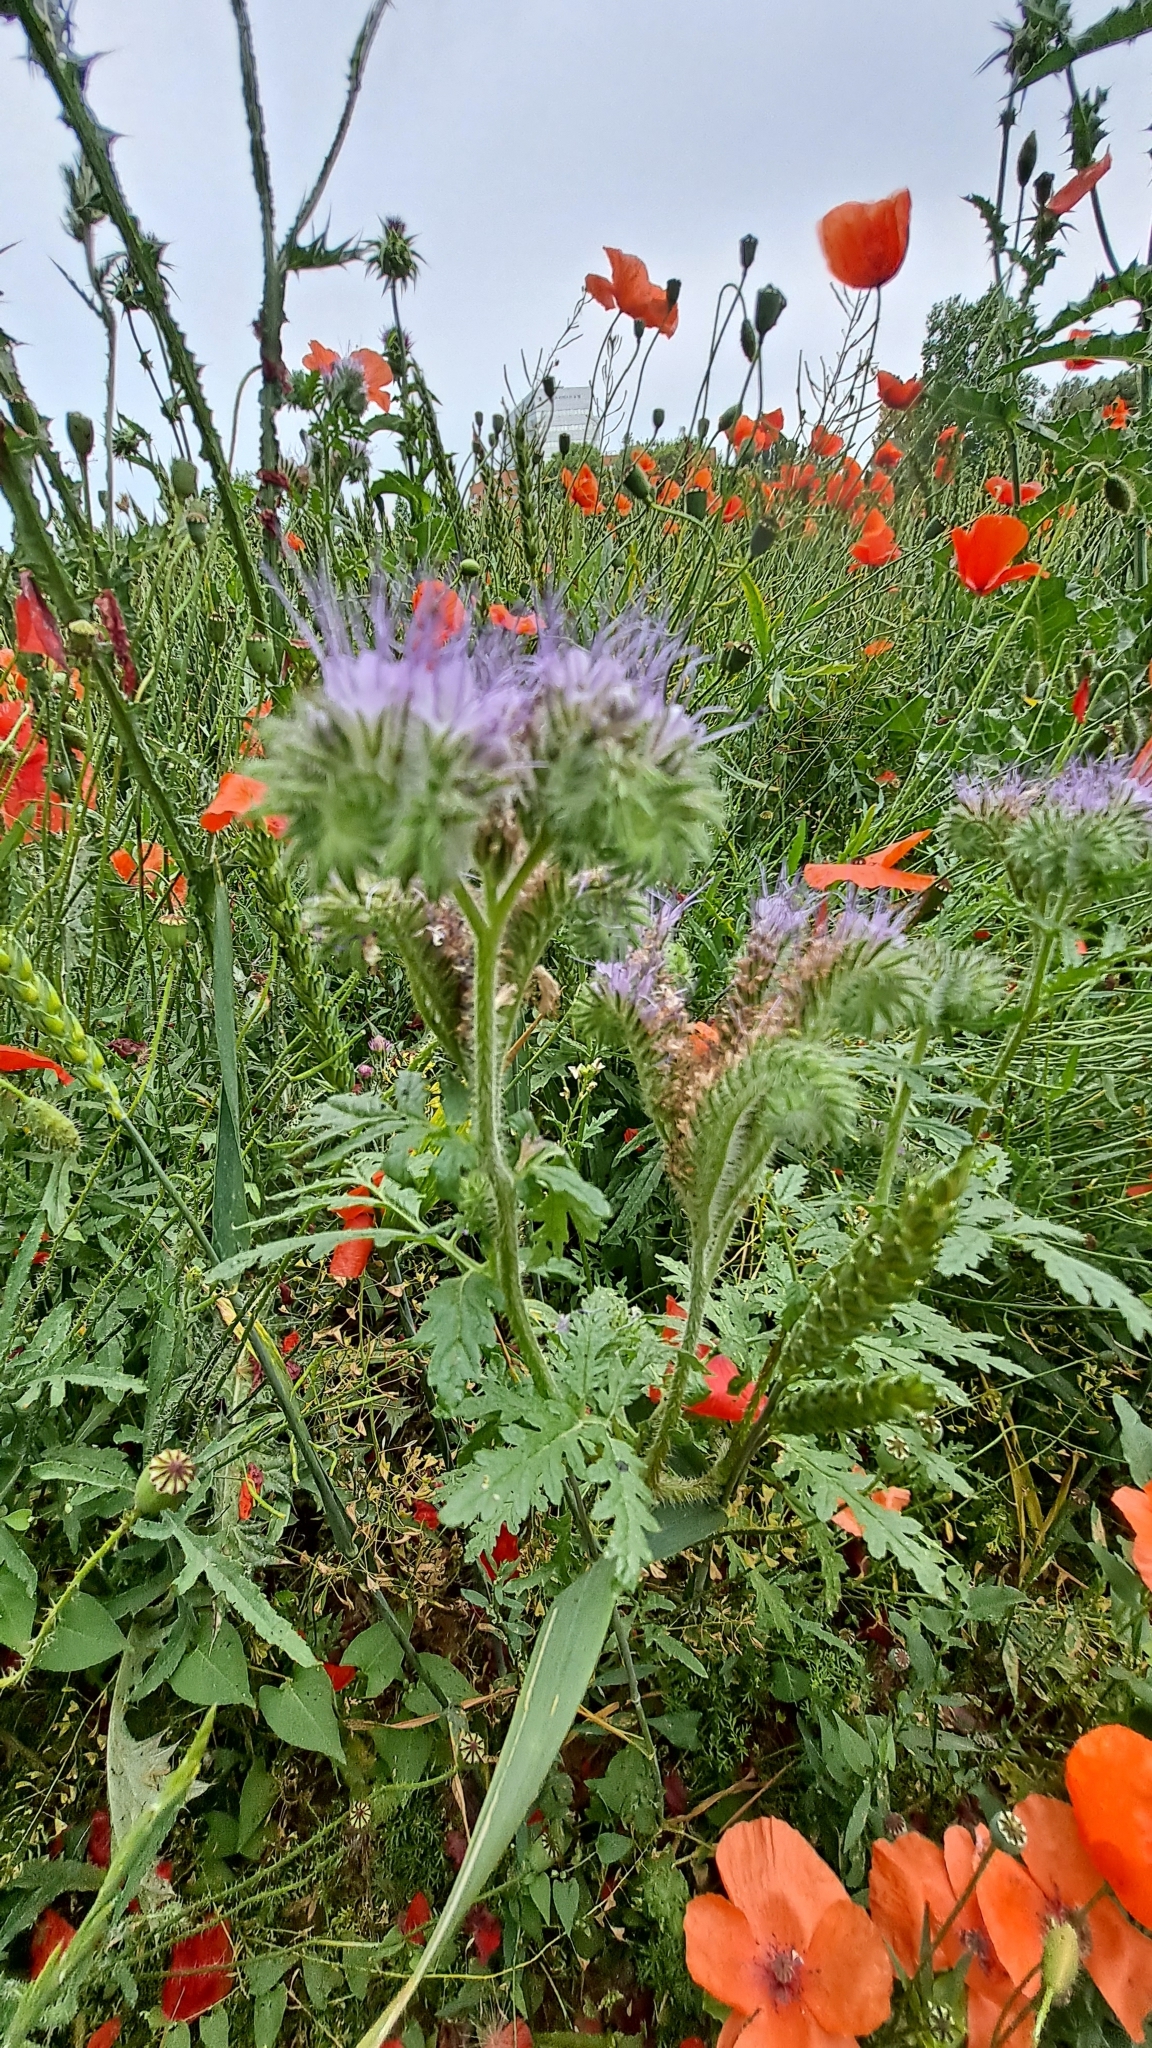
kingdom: Plantae
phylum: Tracheophyta
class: Magnoliopsida
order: Boraginales
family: Hydrophyllaceae
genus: Phacelia
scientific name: Phacelia tanacetifolia
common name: Phacelia
